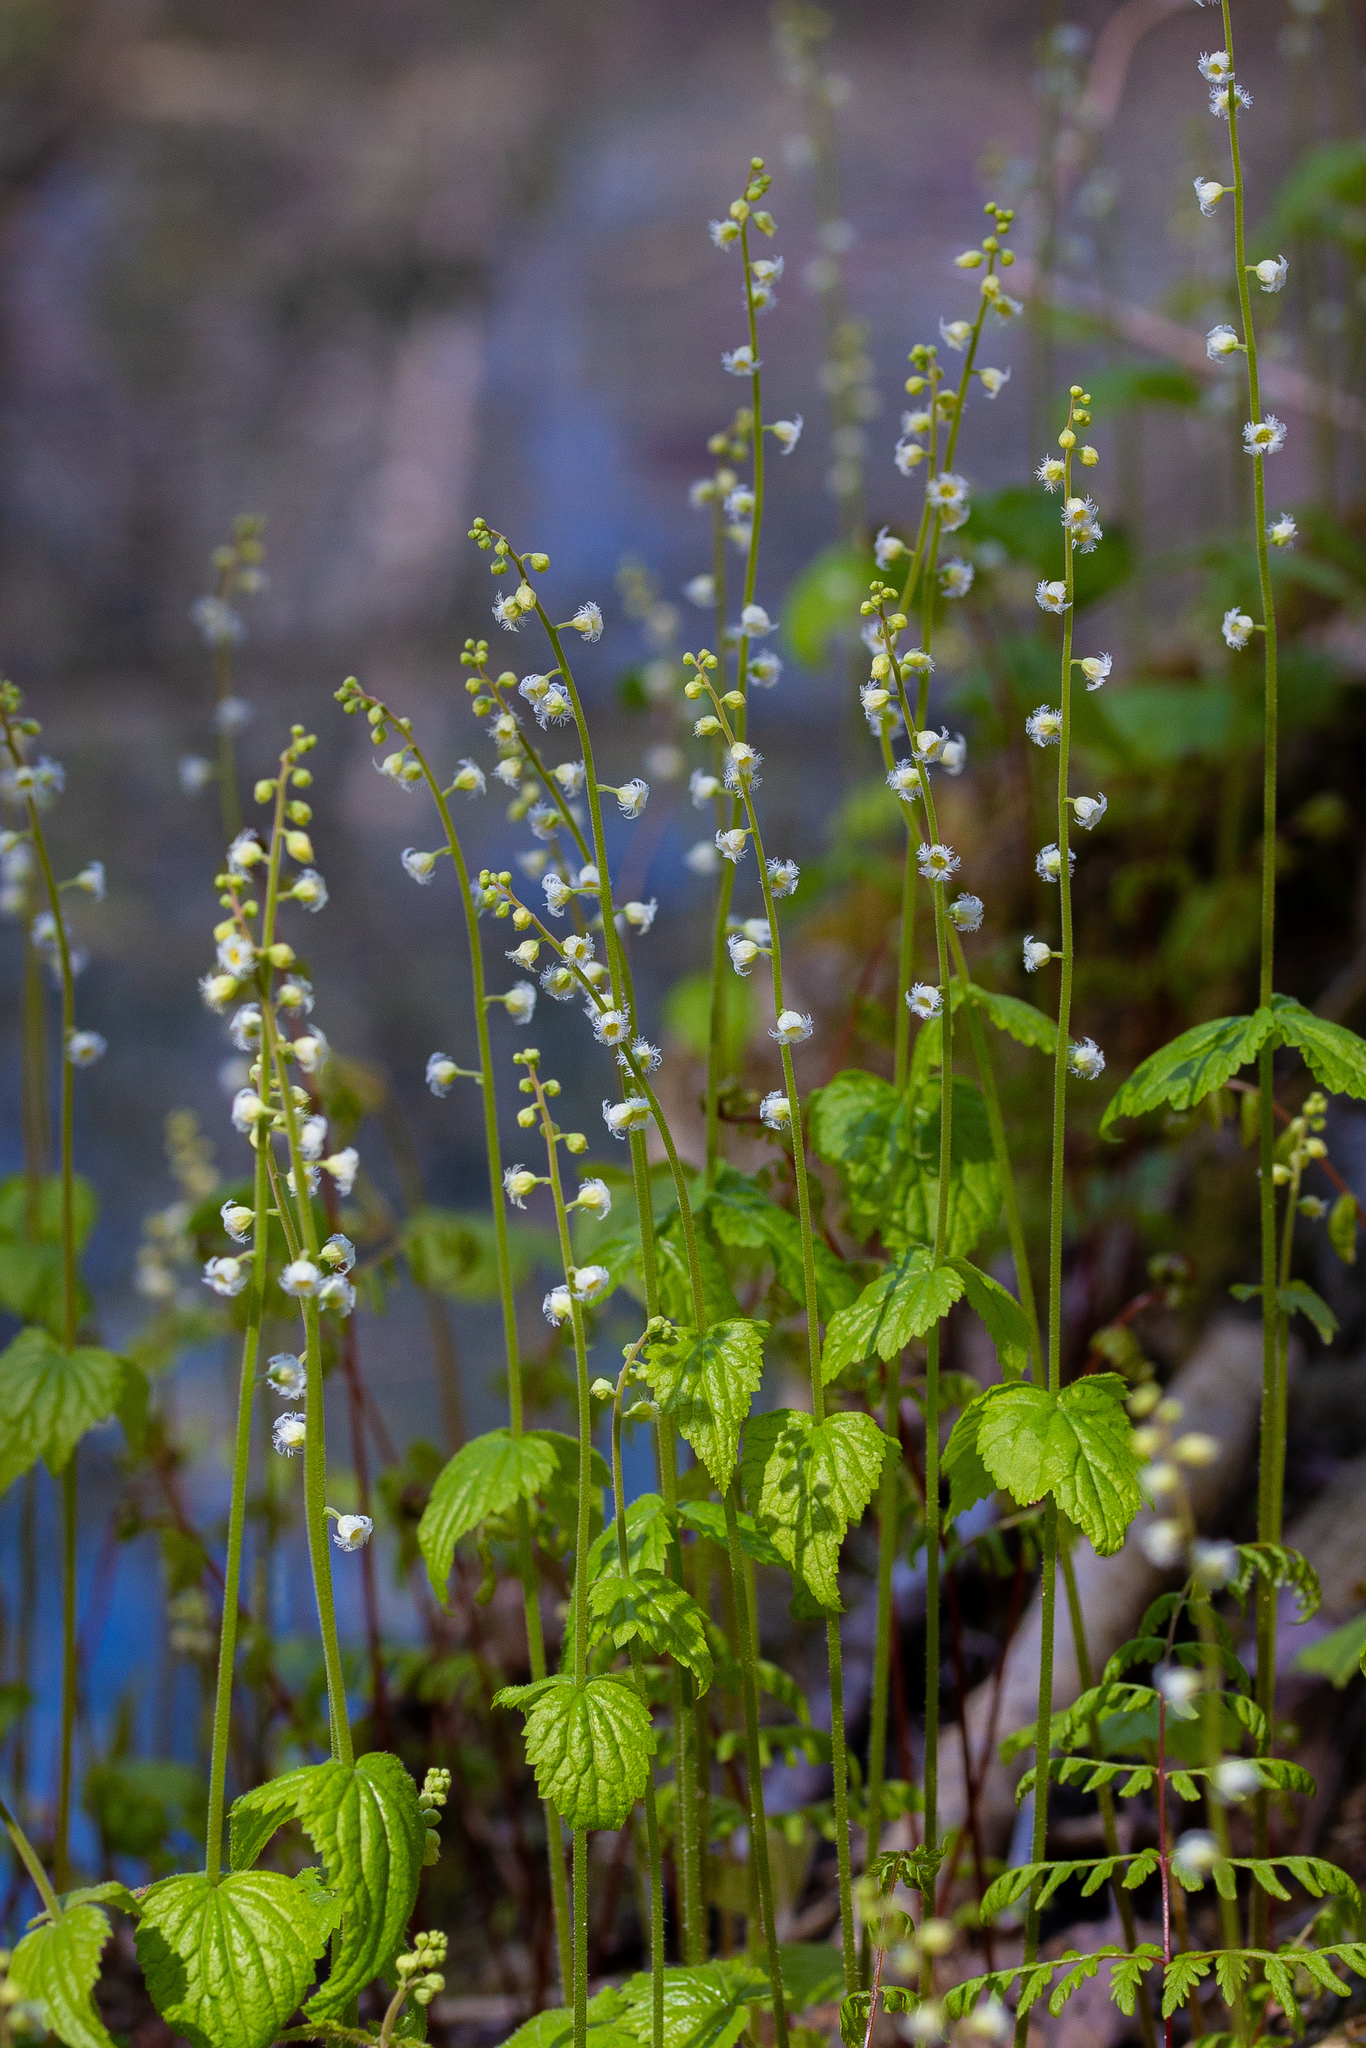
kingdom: Plantae
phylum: Tracheophyta
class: Magnoliopsida
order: Saxifragales
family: Saxifragaceae
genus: Mitella
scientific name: Mitella diphylla
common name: Coolwort
